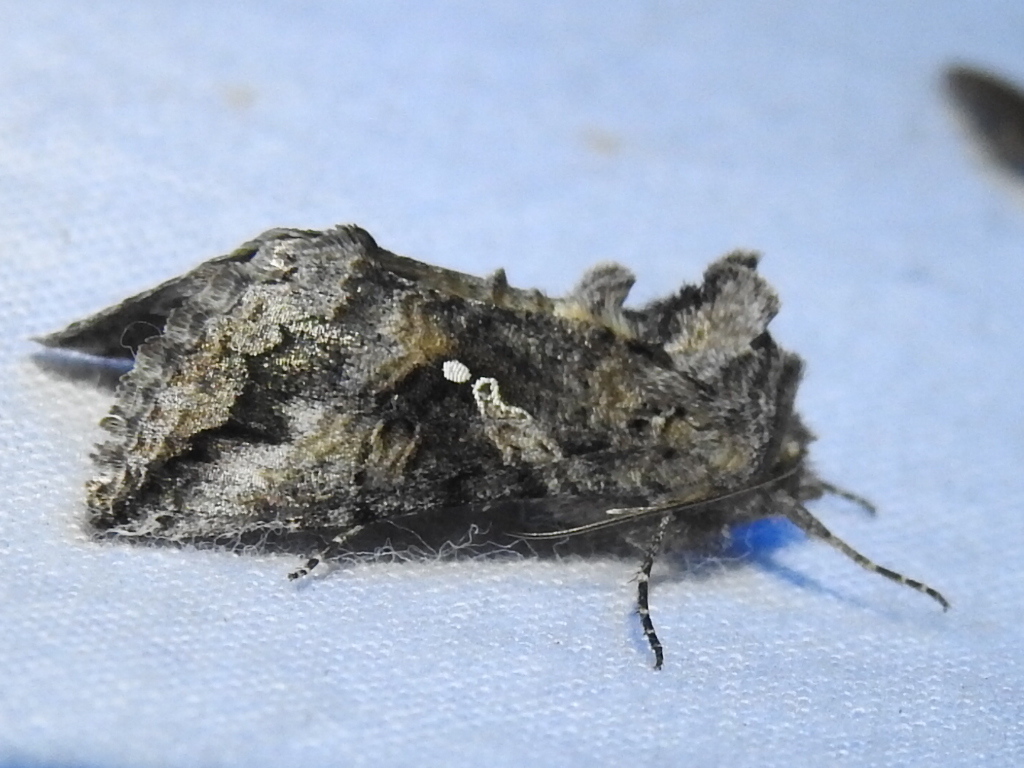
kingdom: Animalia
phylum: Arthropoda
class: Insecta
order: Lepidoptera
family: Noctuidae
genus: Rachiplusia
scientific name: Rachiplusia ou
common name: Gray looper moth
